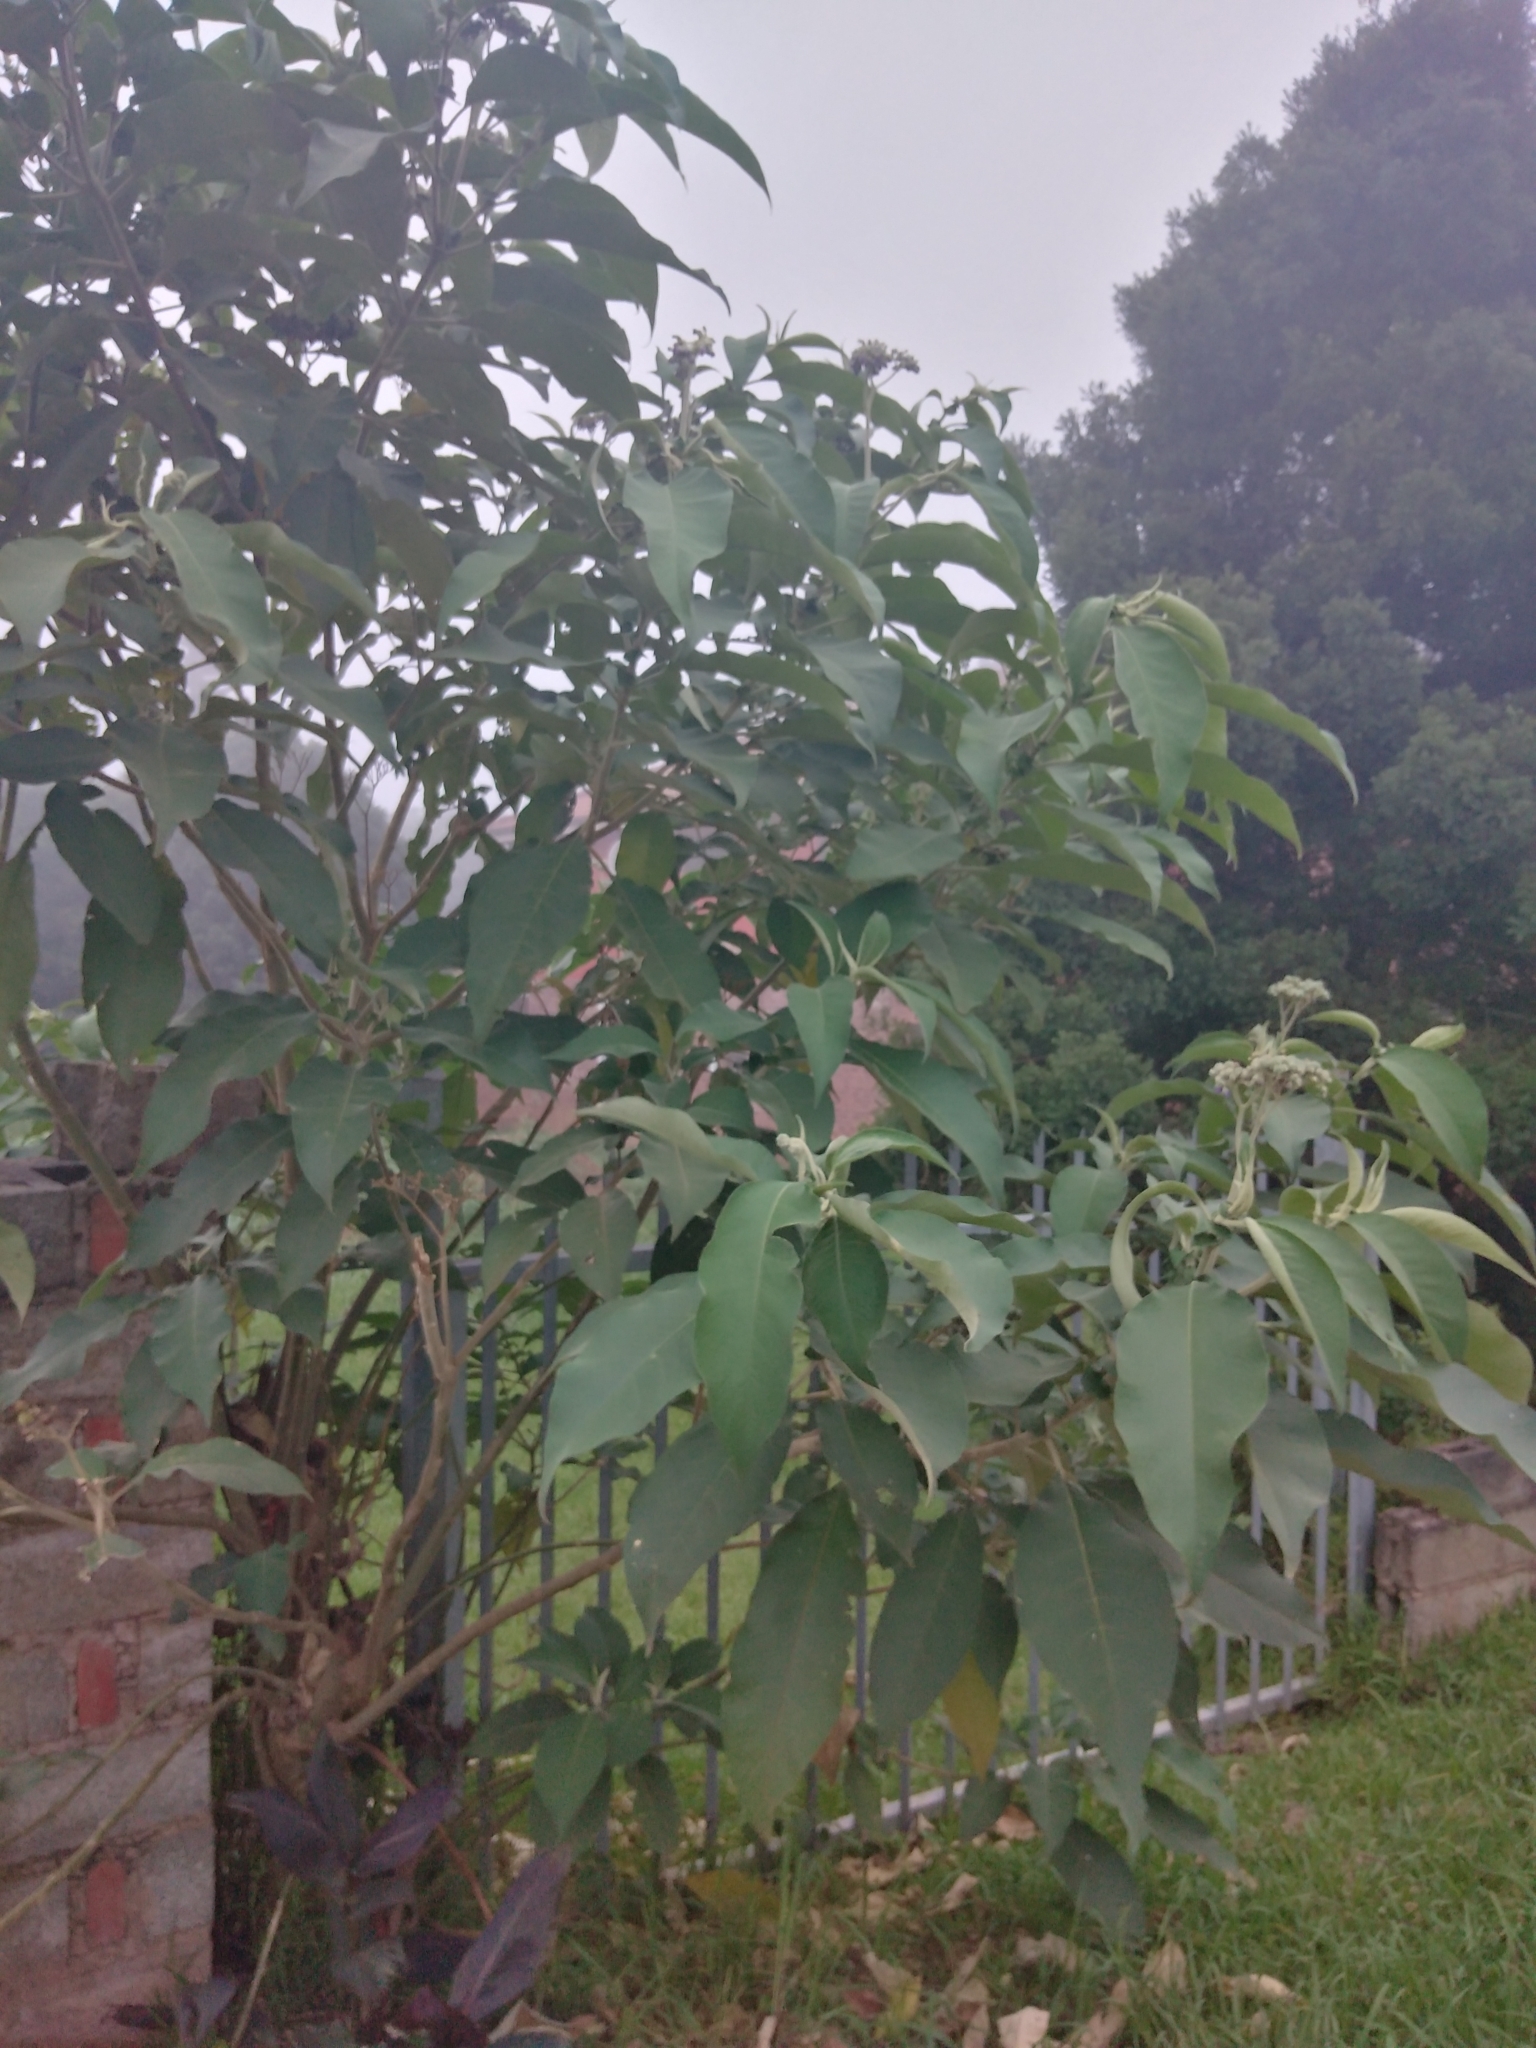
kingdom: Plantae
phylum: Tracheophyta
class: Magnoliopsida
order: Solanales
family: Solanaceae
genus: Solanum
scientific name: Solanum mauritianum
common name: Earleaf nightshade
